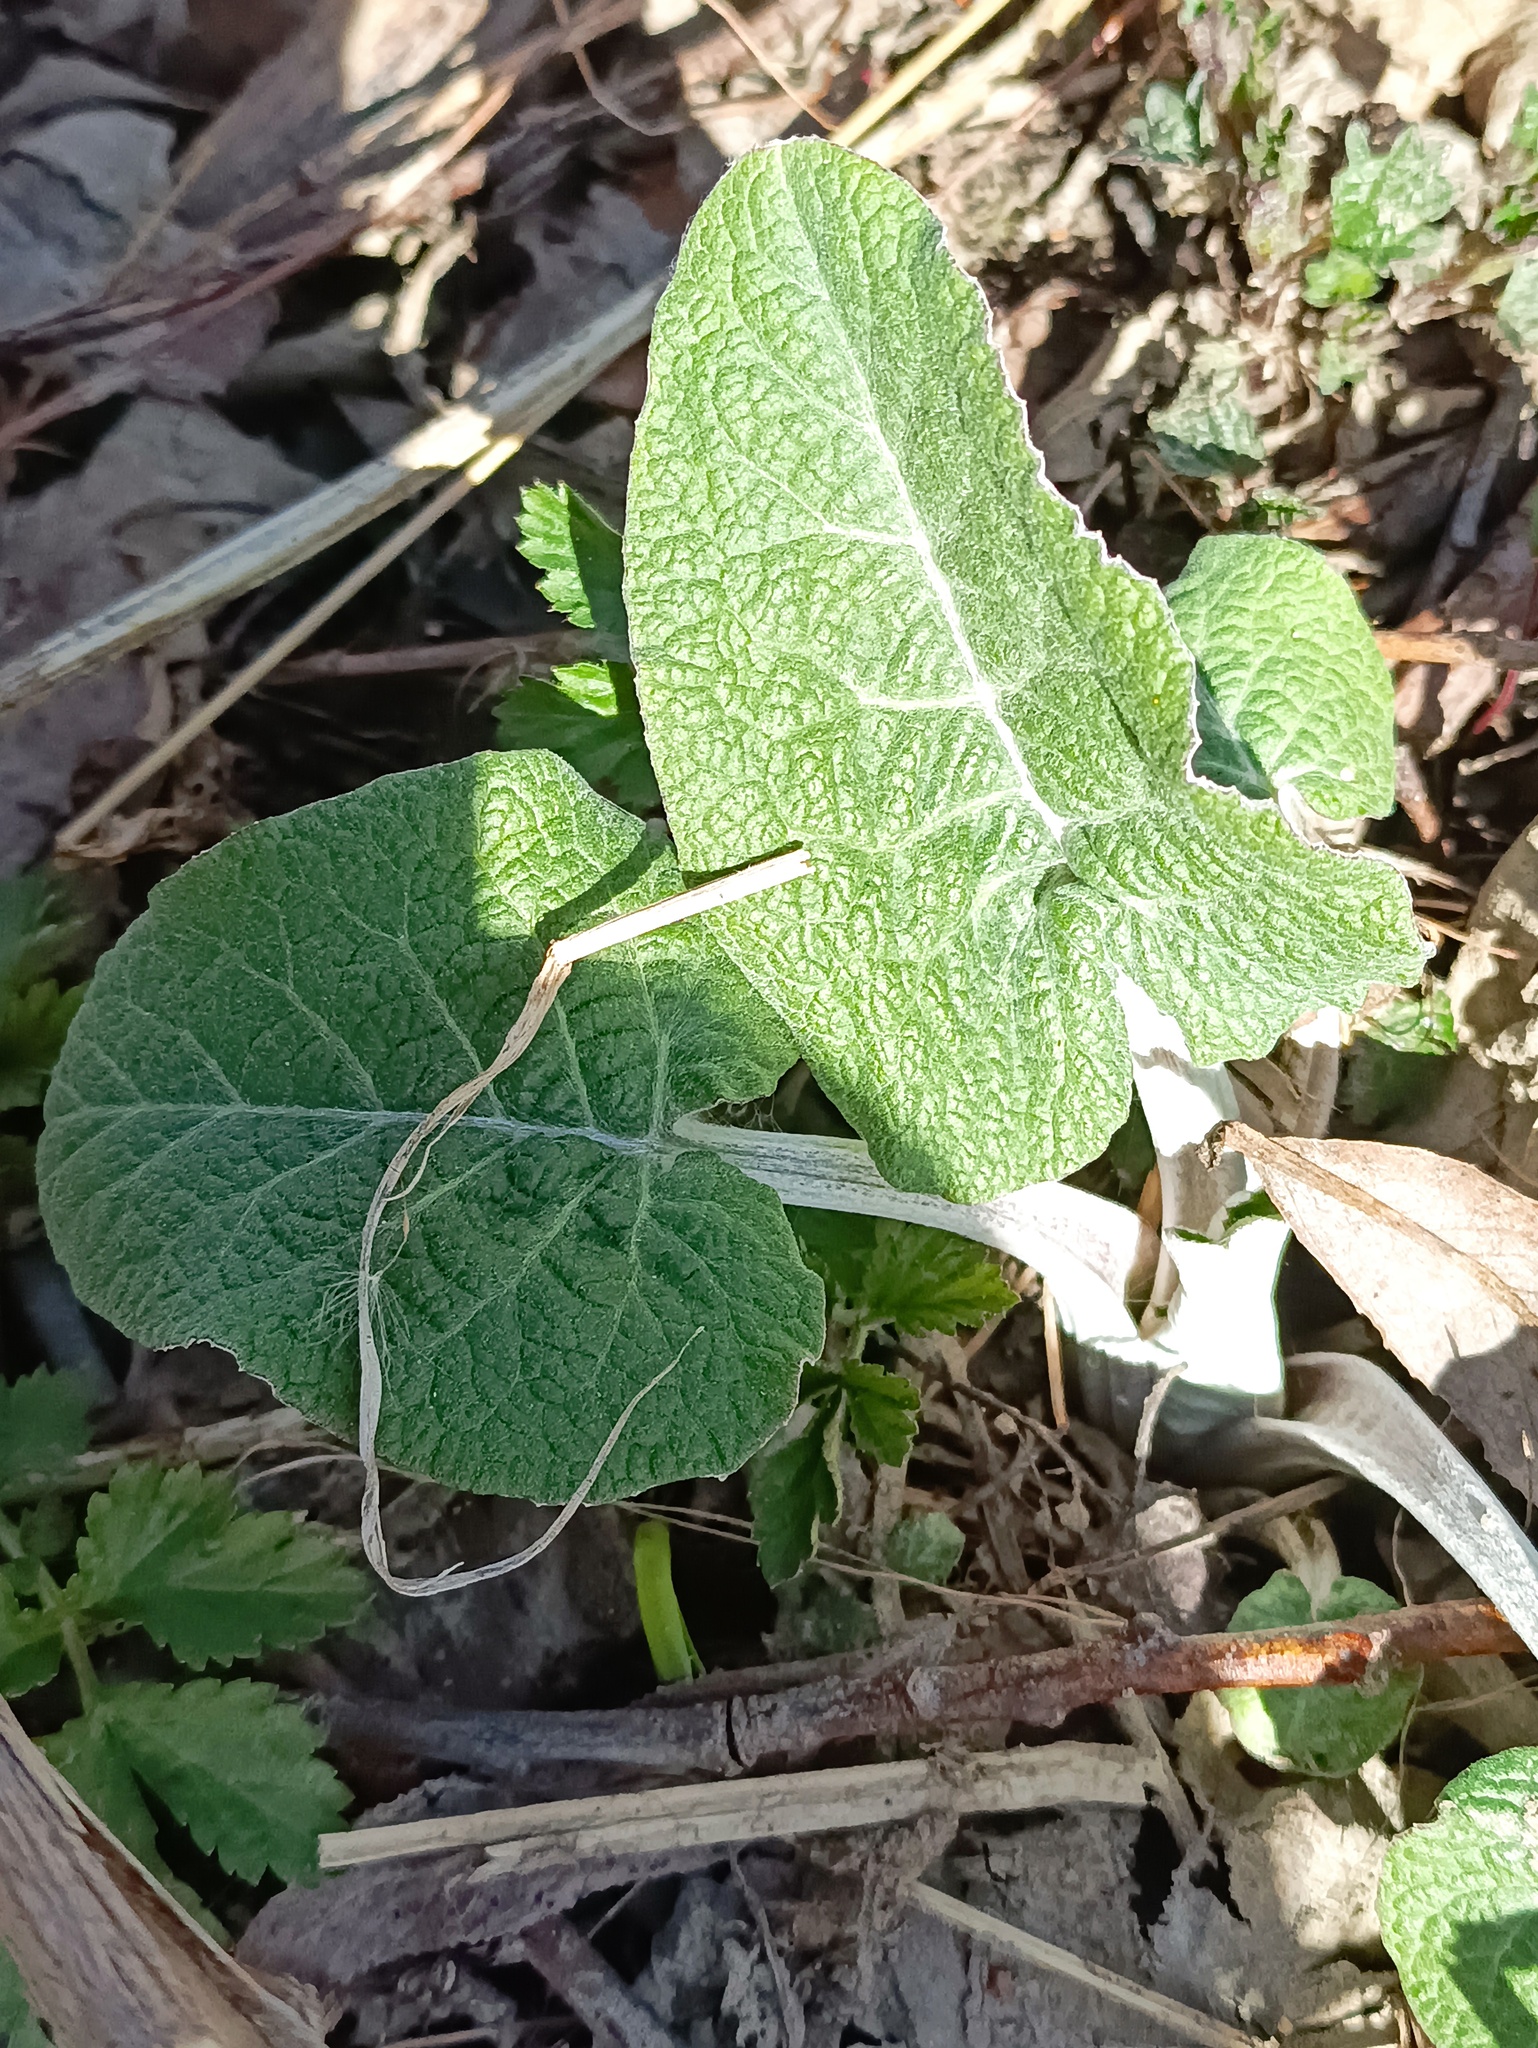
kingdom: Plantae
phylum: Tracheophyta
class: Magnoliopsida
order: Asterales
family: Asteraceae
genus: Arctium
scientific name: Arctium tomentosum
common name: Woolly burdock
